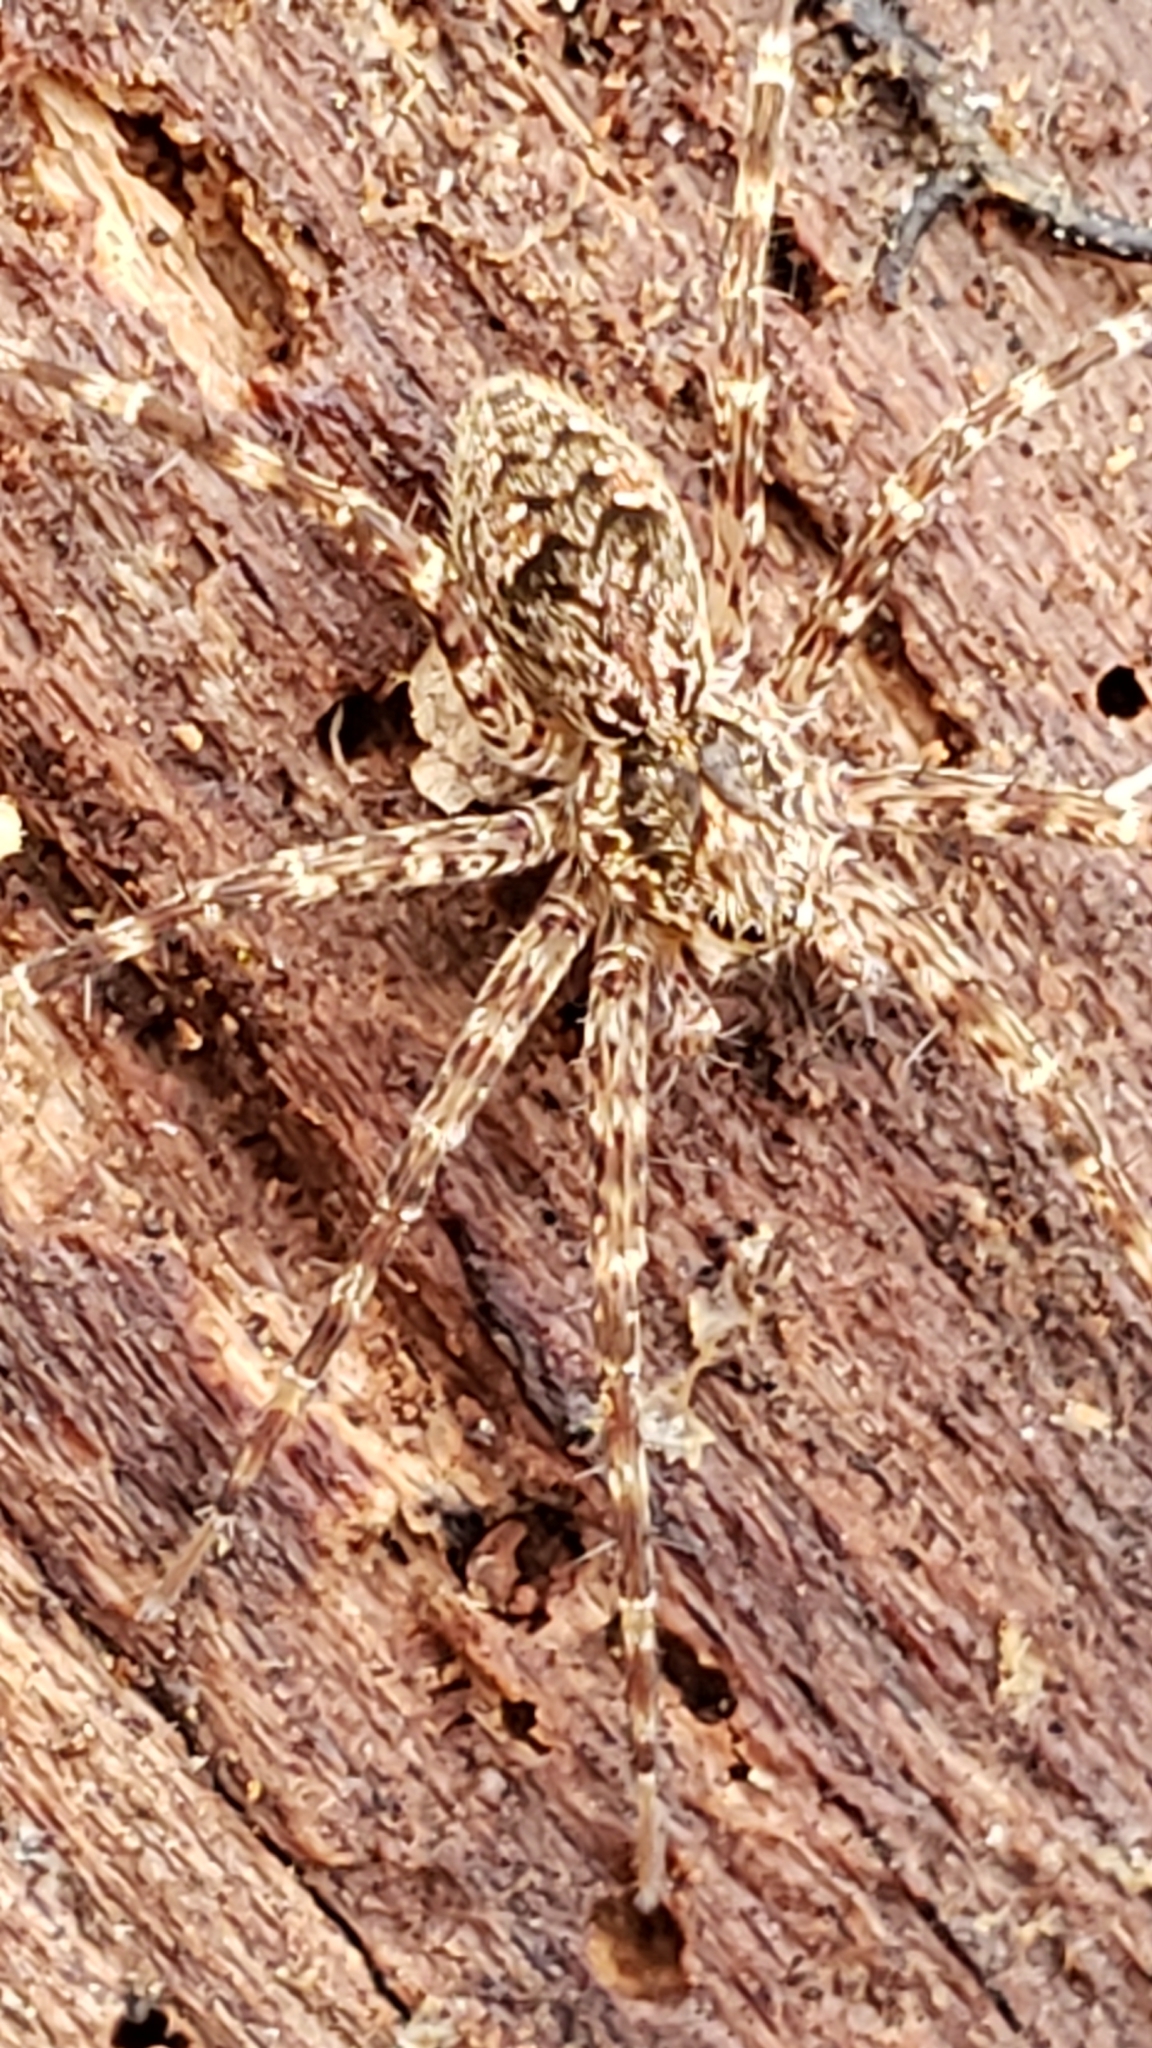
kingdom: Animalia
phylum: Arthropoda
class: Arachnida
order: Araneae
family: Pisauridae
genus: Dolomedes
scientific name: Dolomedes tenebrosus
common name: Dark fishing spider
